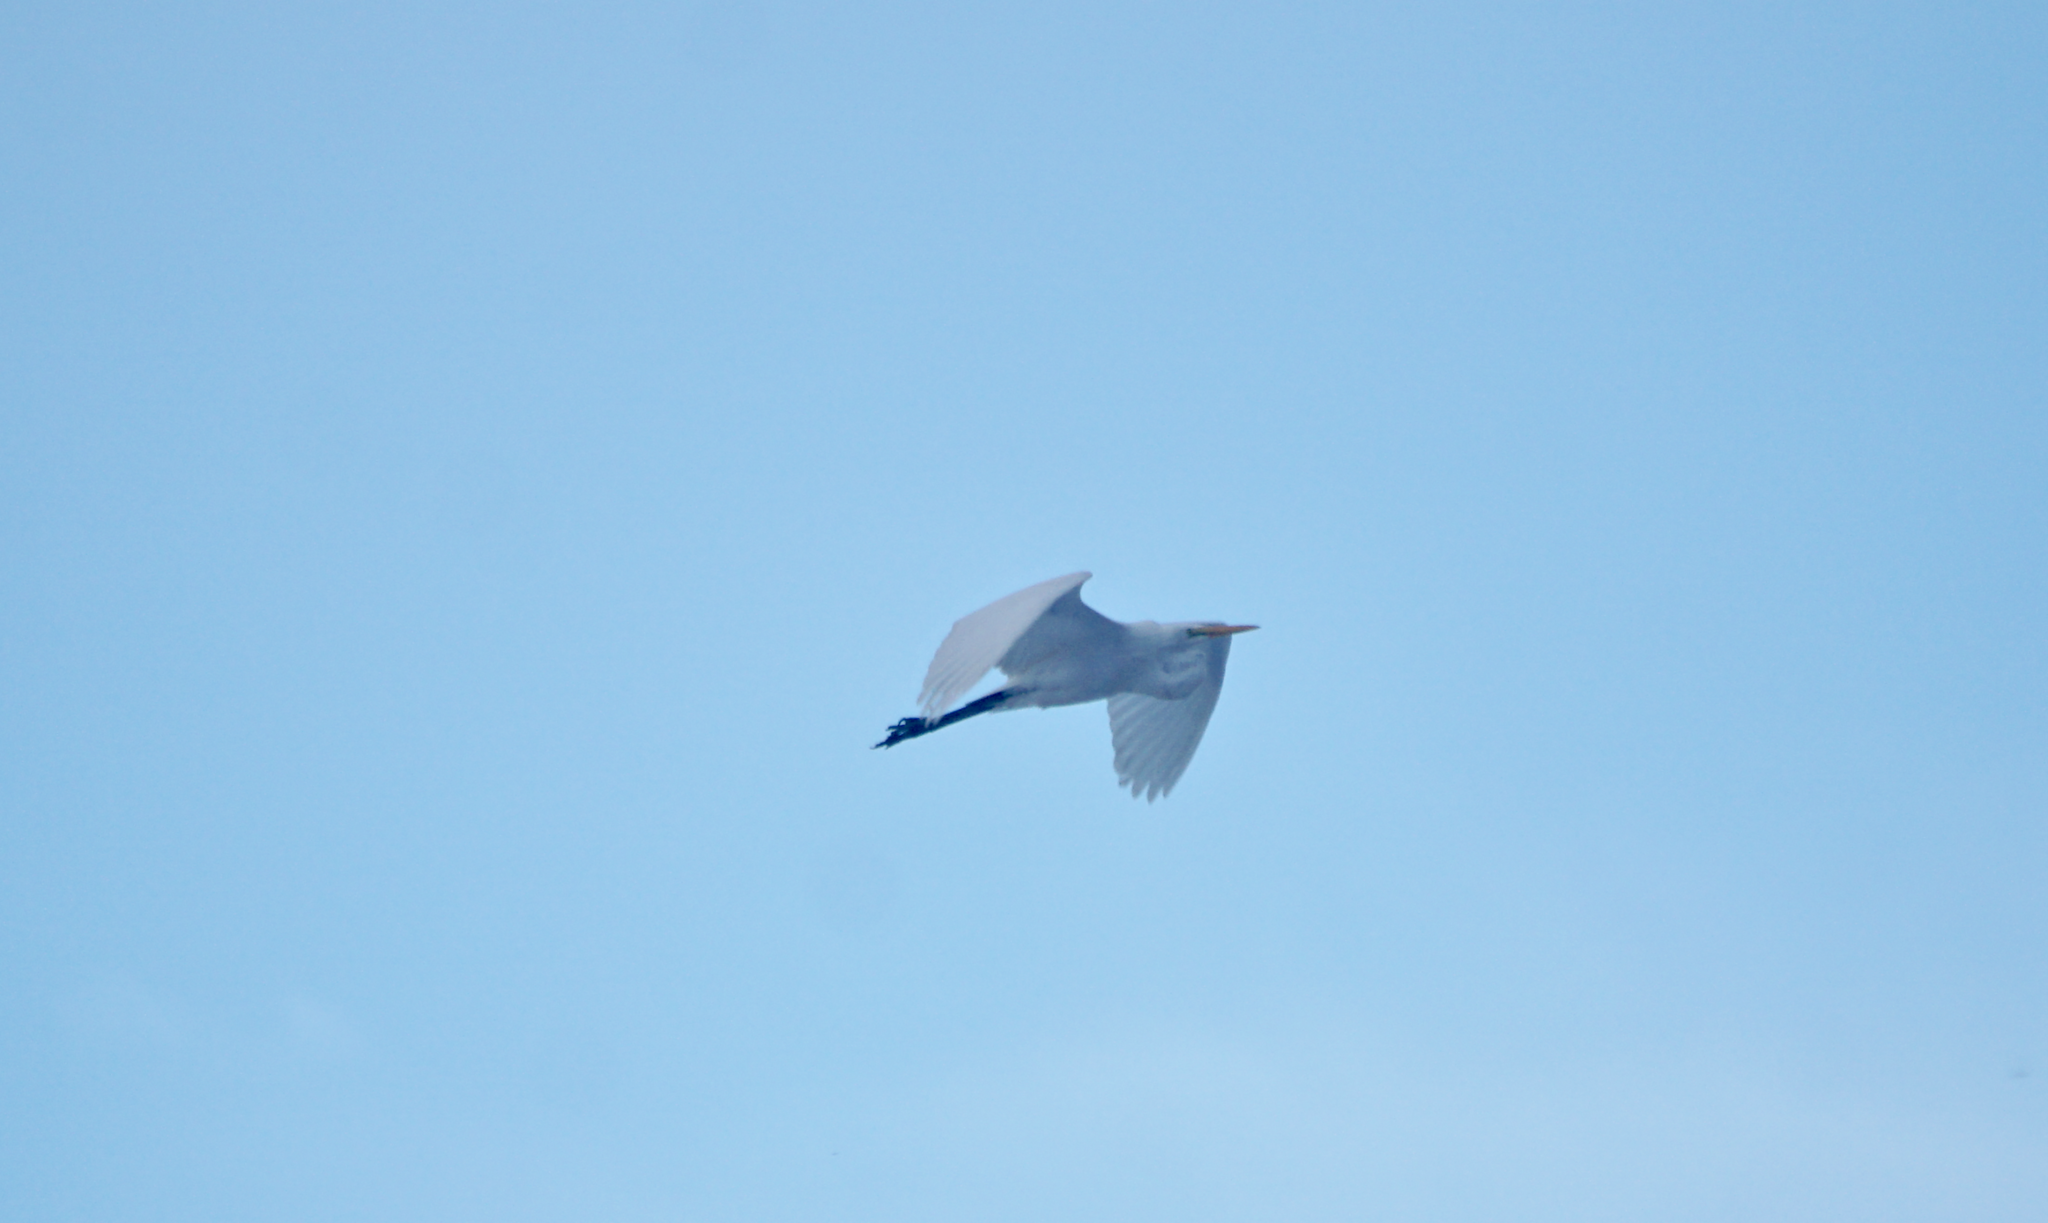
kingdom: Animalia
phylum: Chordata
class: Aves
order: Pelecaniformes
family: Ardeidae
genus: Ardea
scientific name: Ardea alba
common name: Great egret
